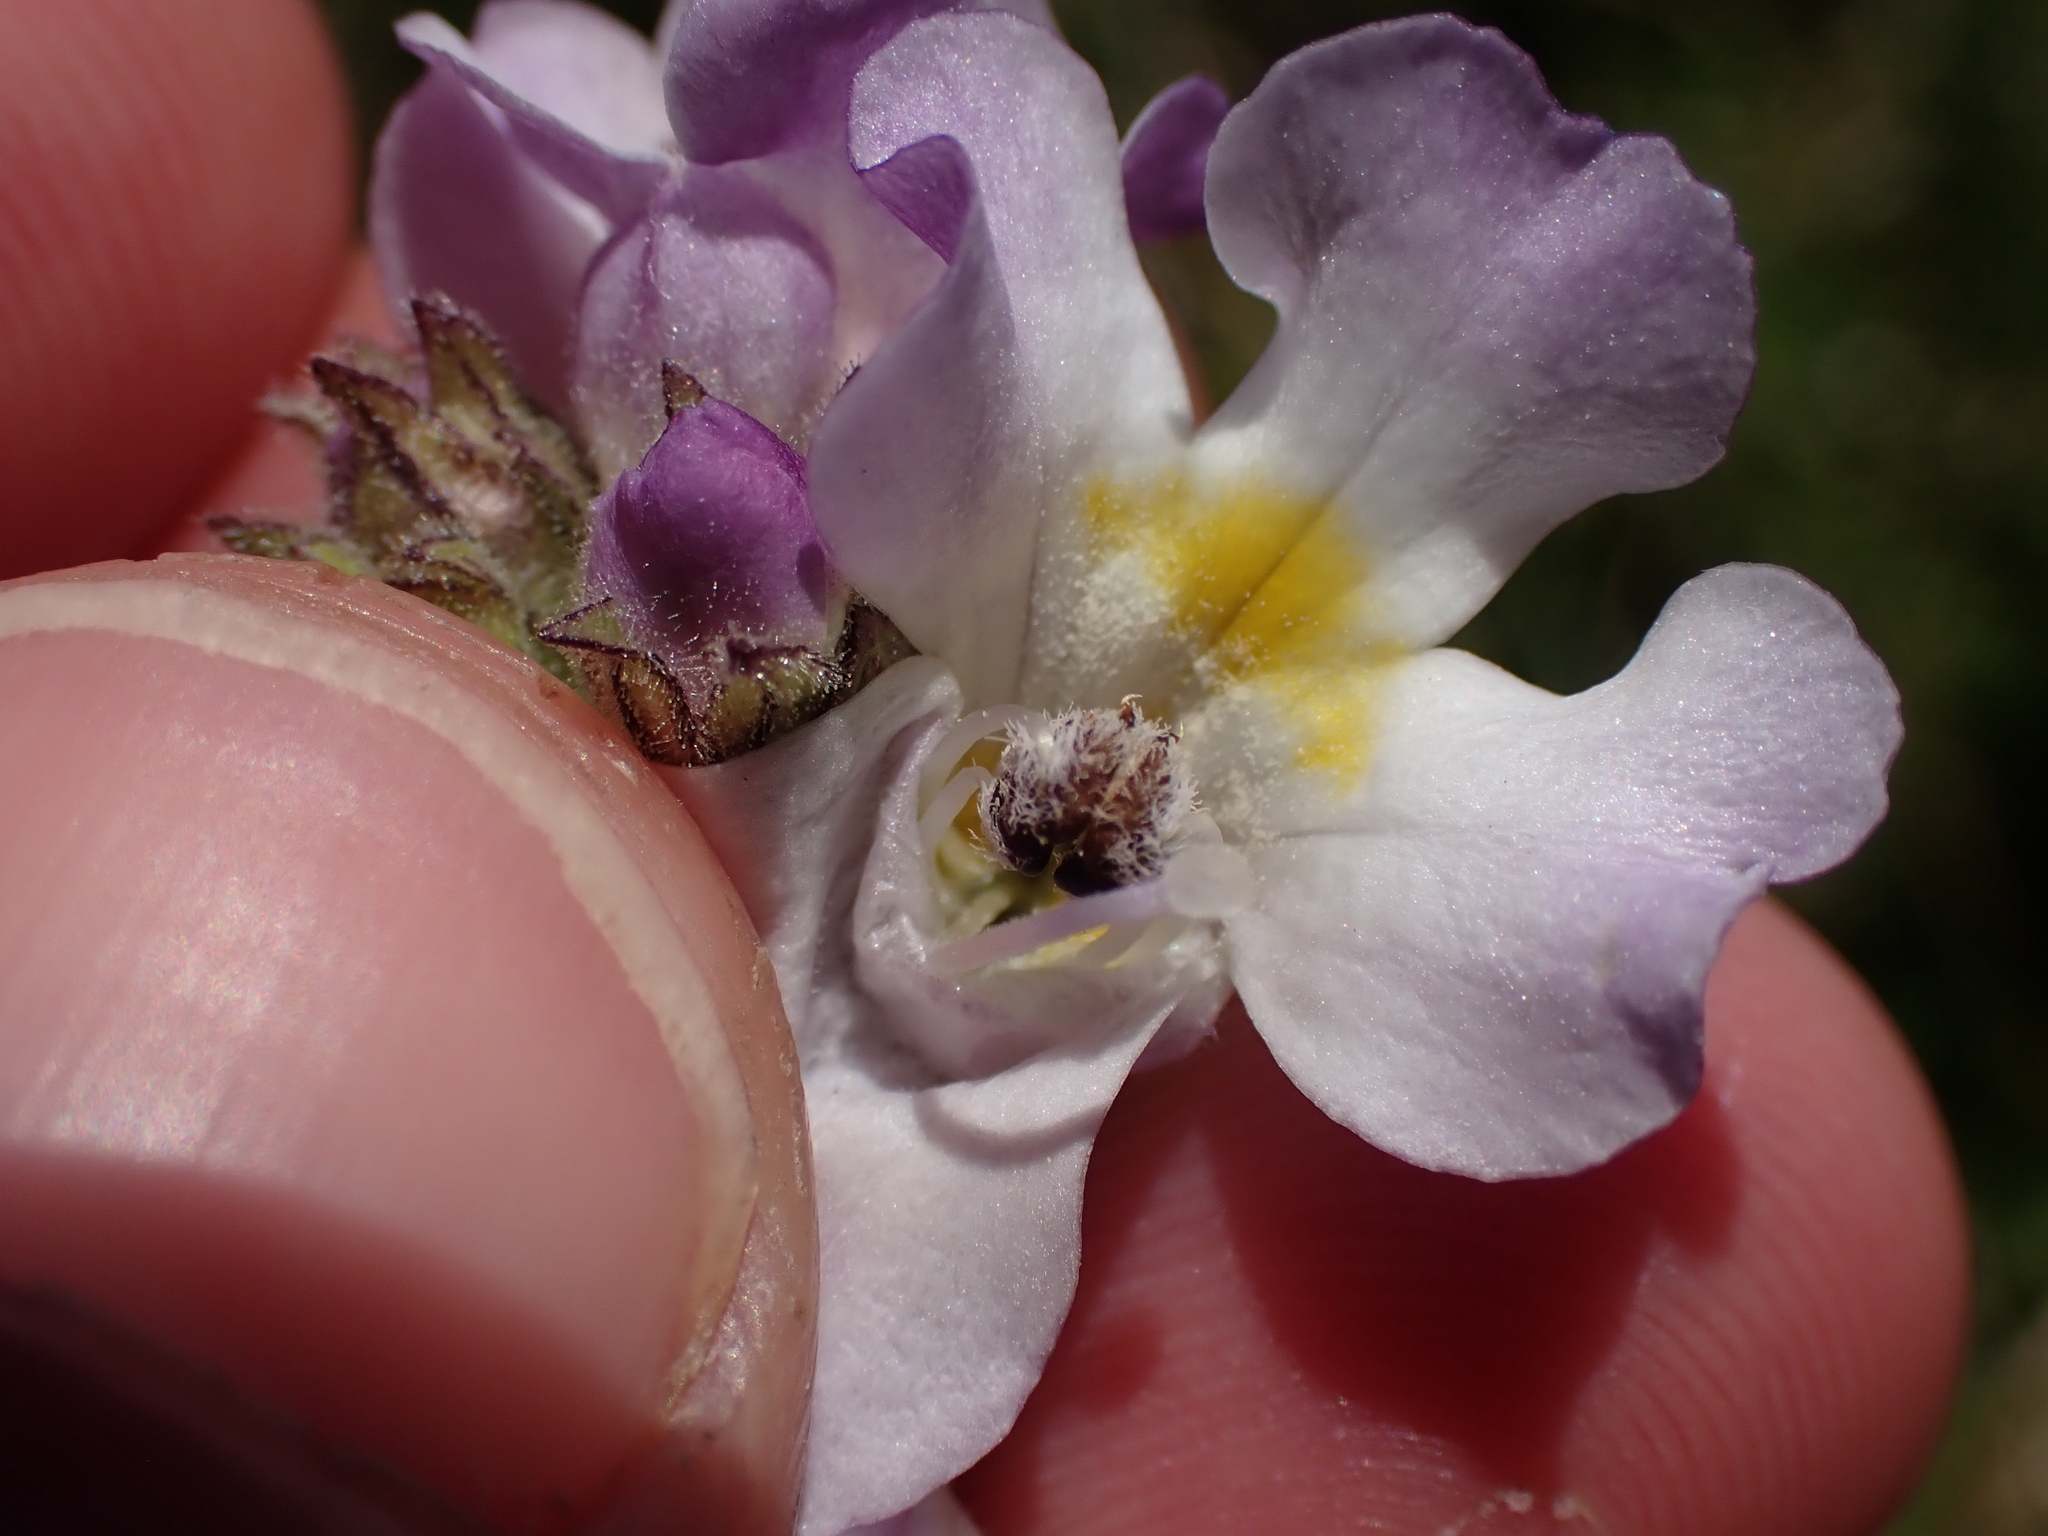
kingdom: Plantae
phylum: Tracheophyta
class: Magnoliopsida
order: Lamiales
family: Orobanchaceae
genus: Euphrasia
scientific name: Euphrasia collina
